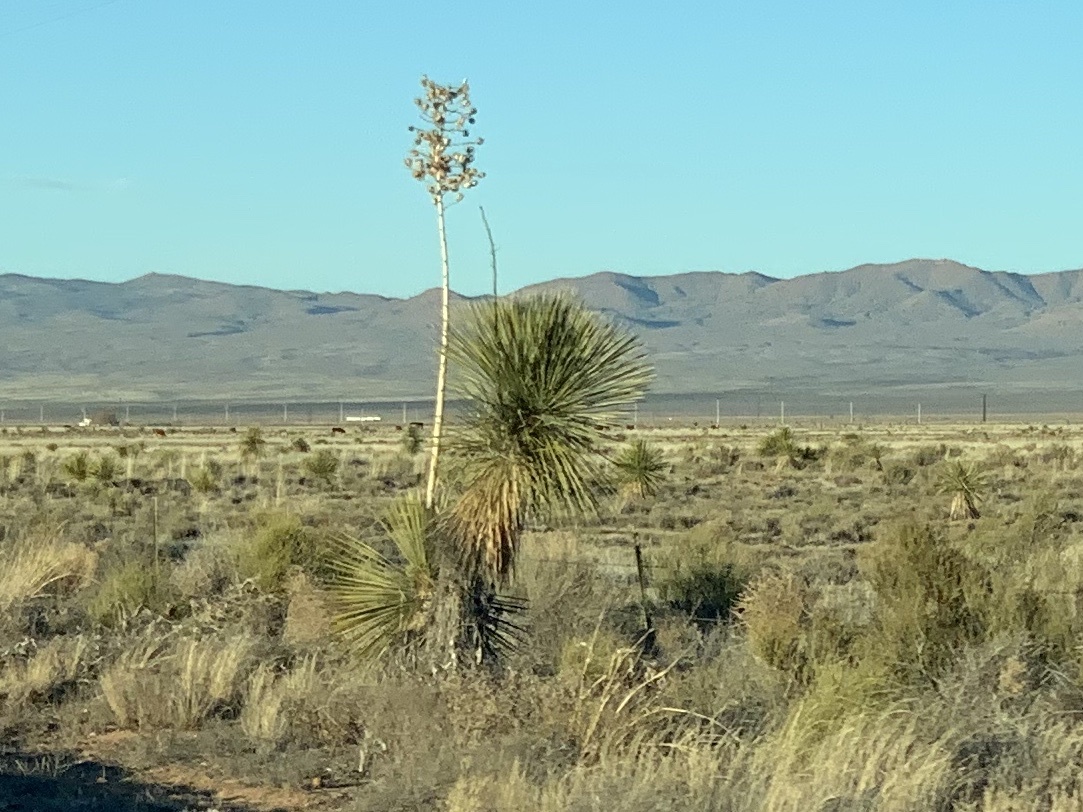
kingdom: Plantae
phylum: Tracheophyta
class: Liliopsida
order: Asparagales
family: Asparagaceae
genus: Yucca
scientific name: Yucca elata
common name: Palmella
